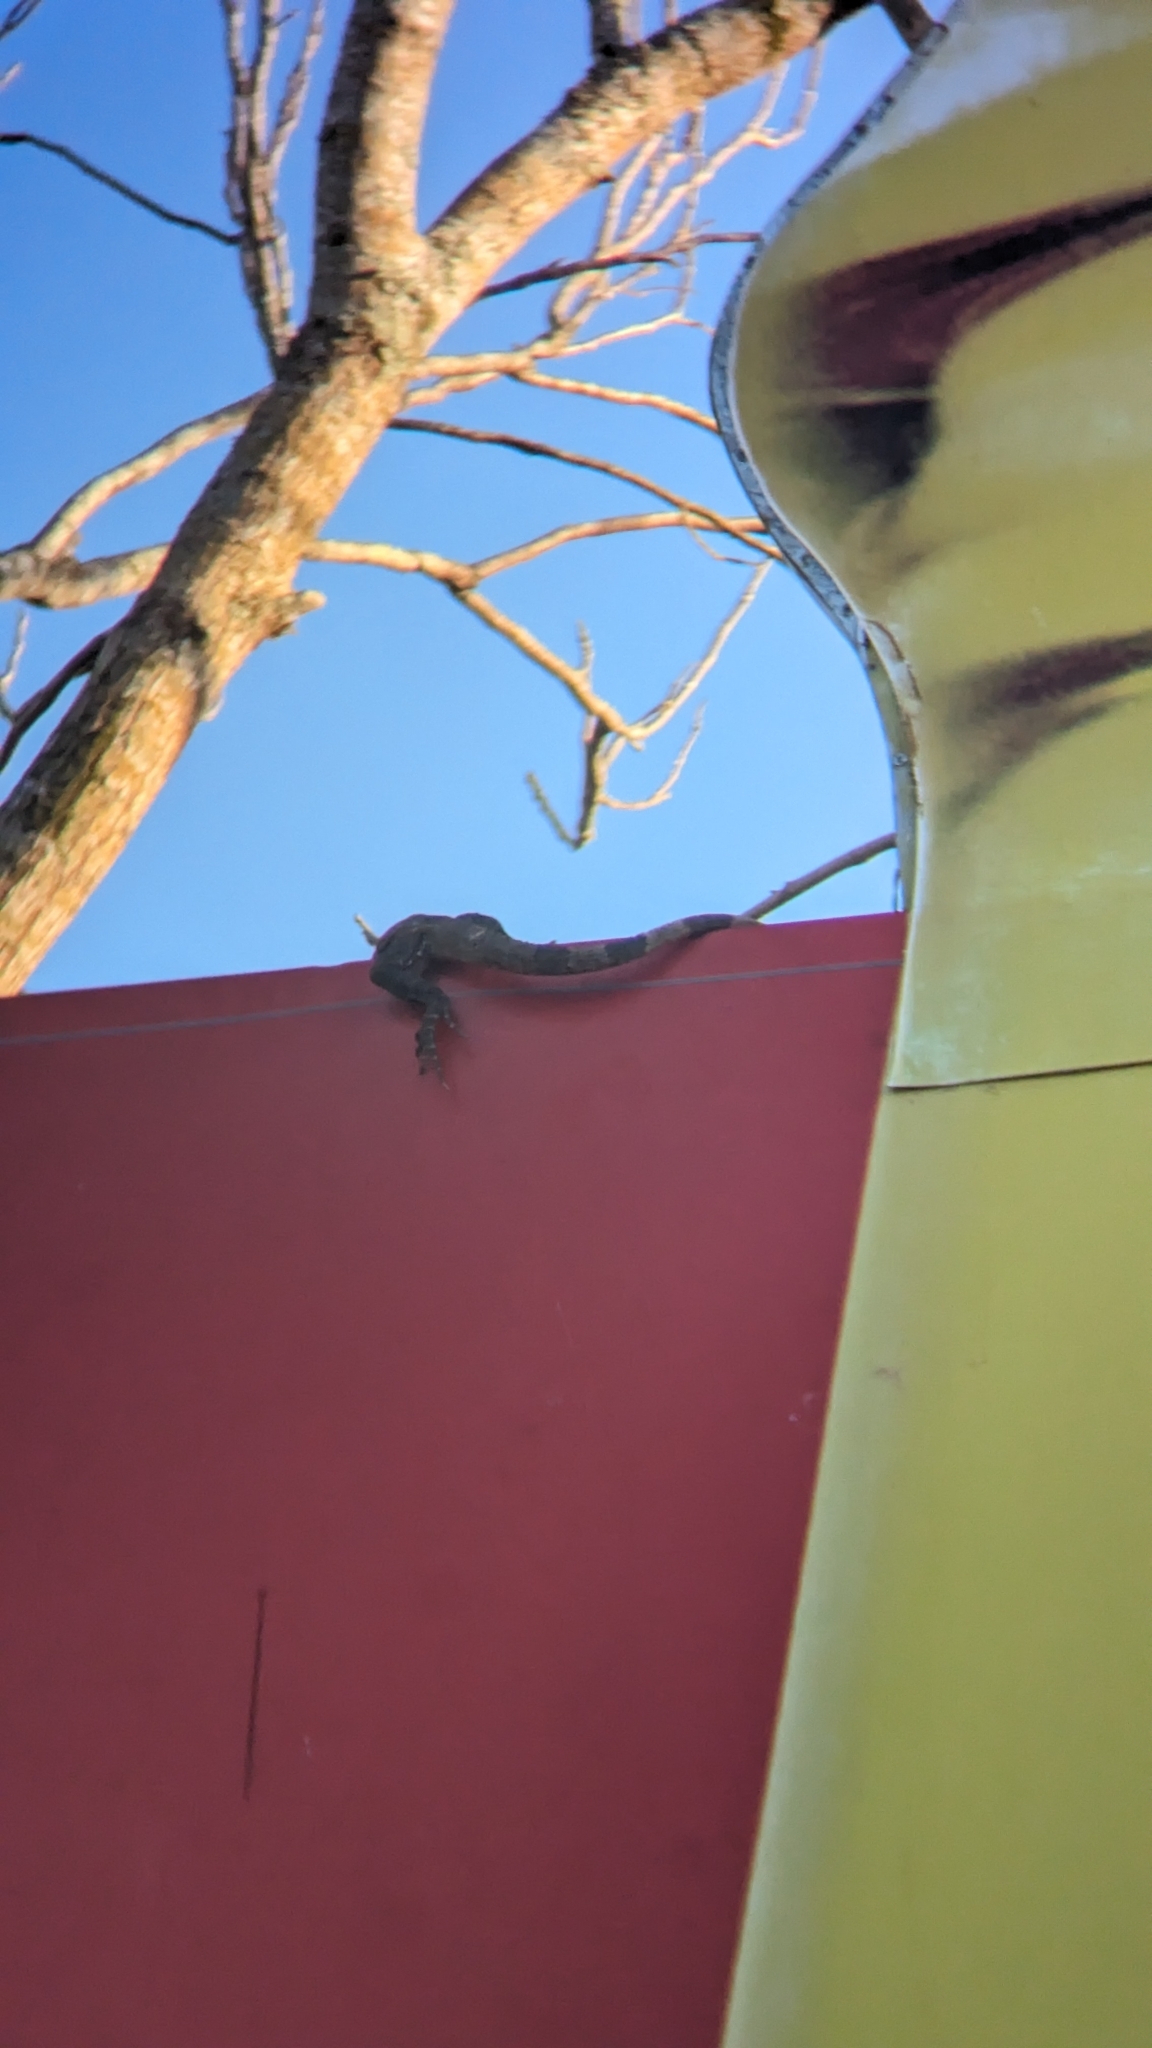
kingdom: Animalia
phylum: Chordata
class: Squamata
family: Iguanidae
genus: Ctenosaura
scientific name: Ctenosaura similis
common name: Black spiny-tailed iguana
